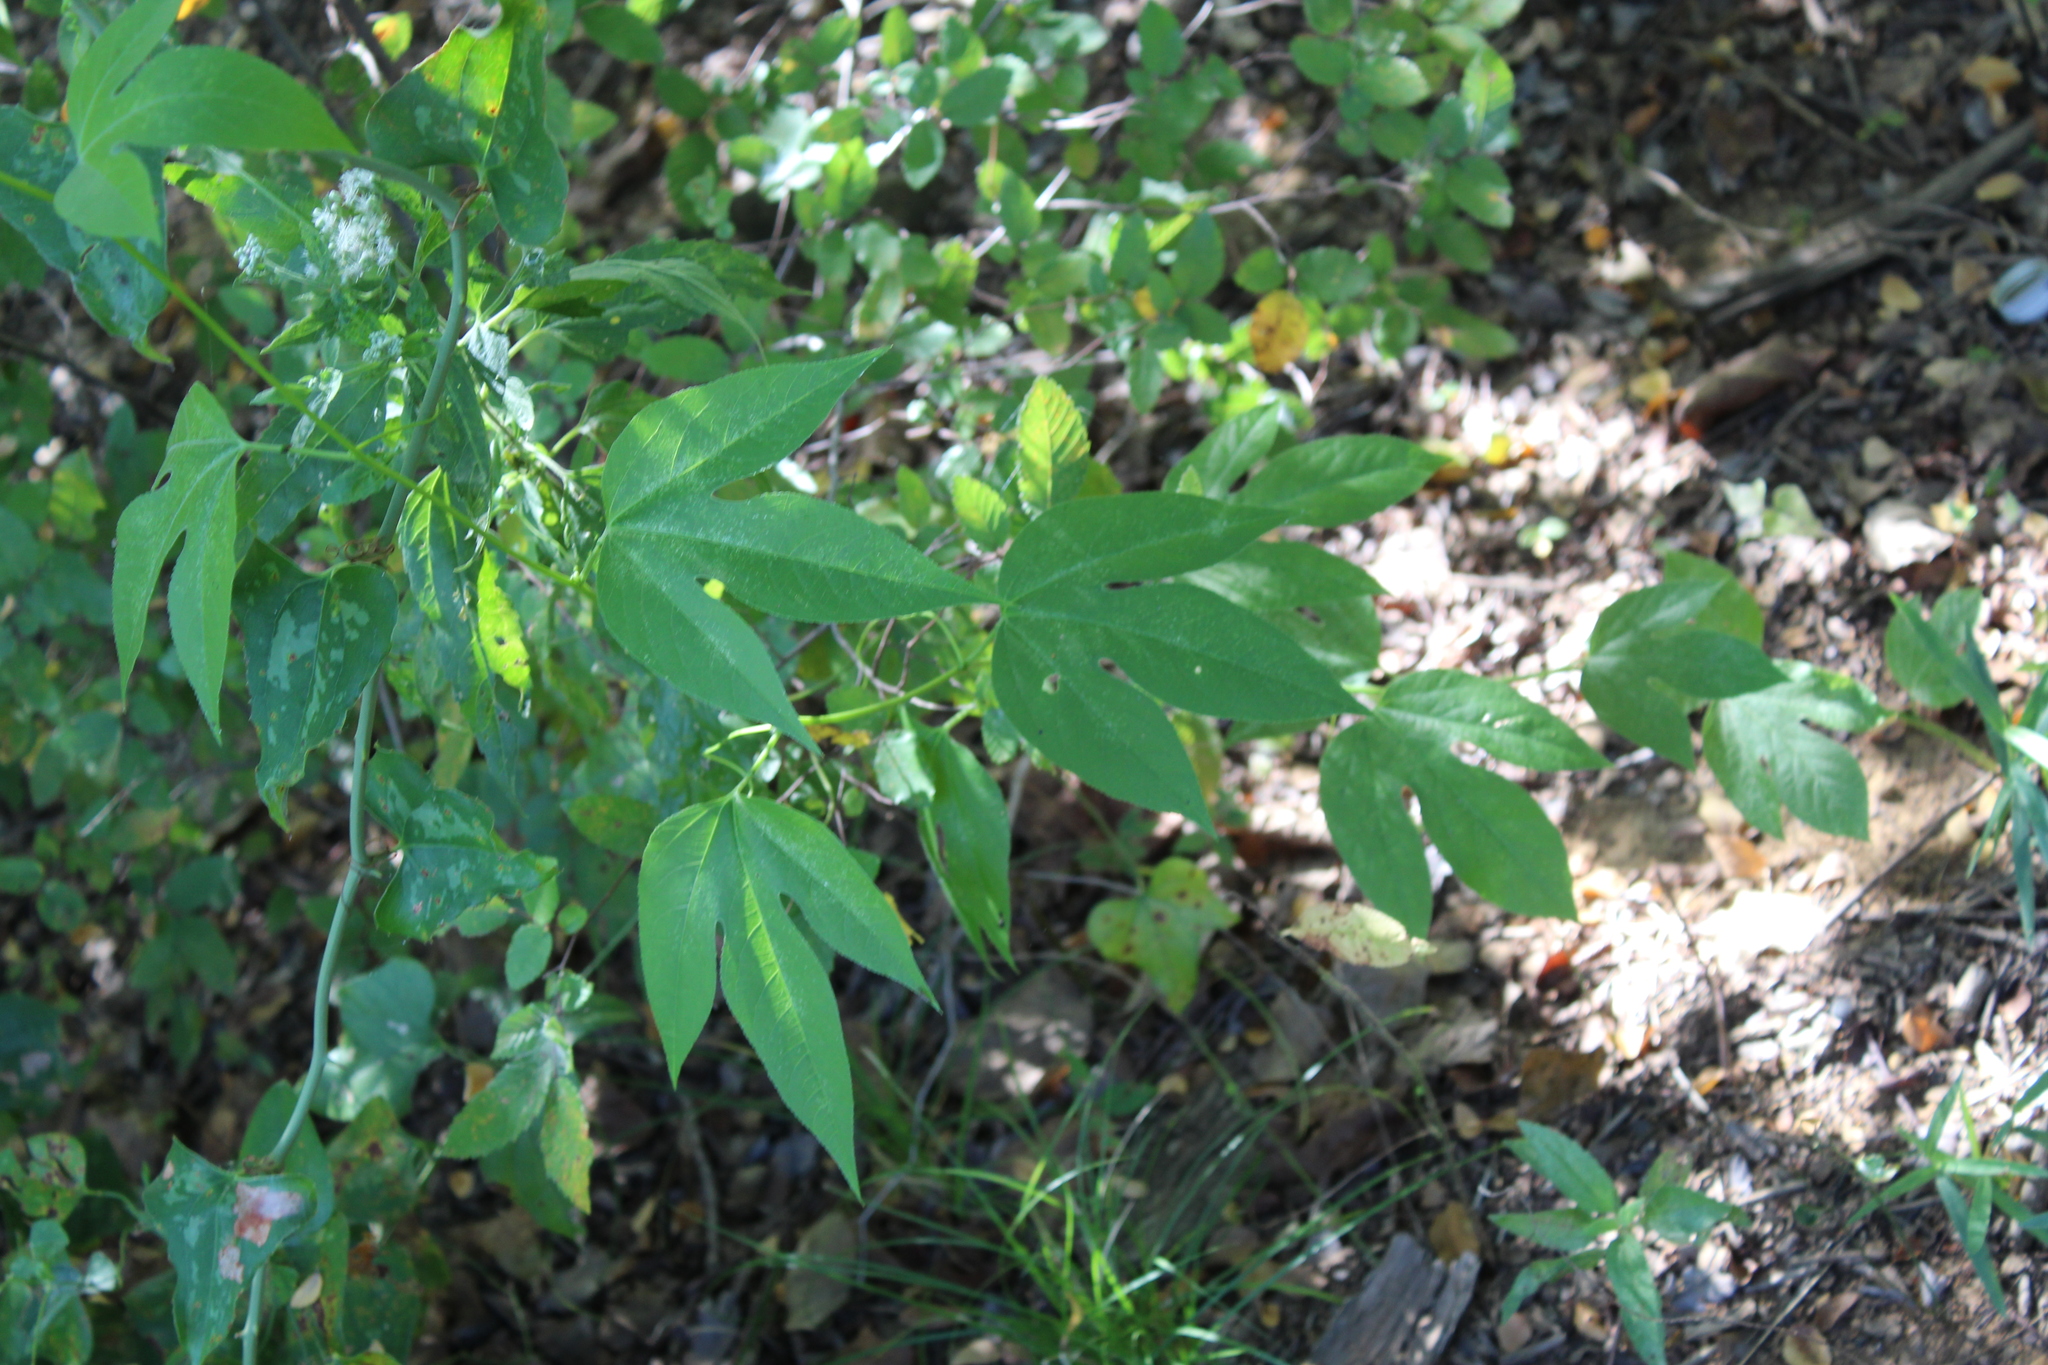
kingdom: Plantae
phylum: Tracheophyta
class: Magnoliopsida
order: Malpighiales
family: Passifloraceae
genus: Passiflora
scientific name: Passiflora incarnata
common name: Apricot-vine
